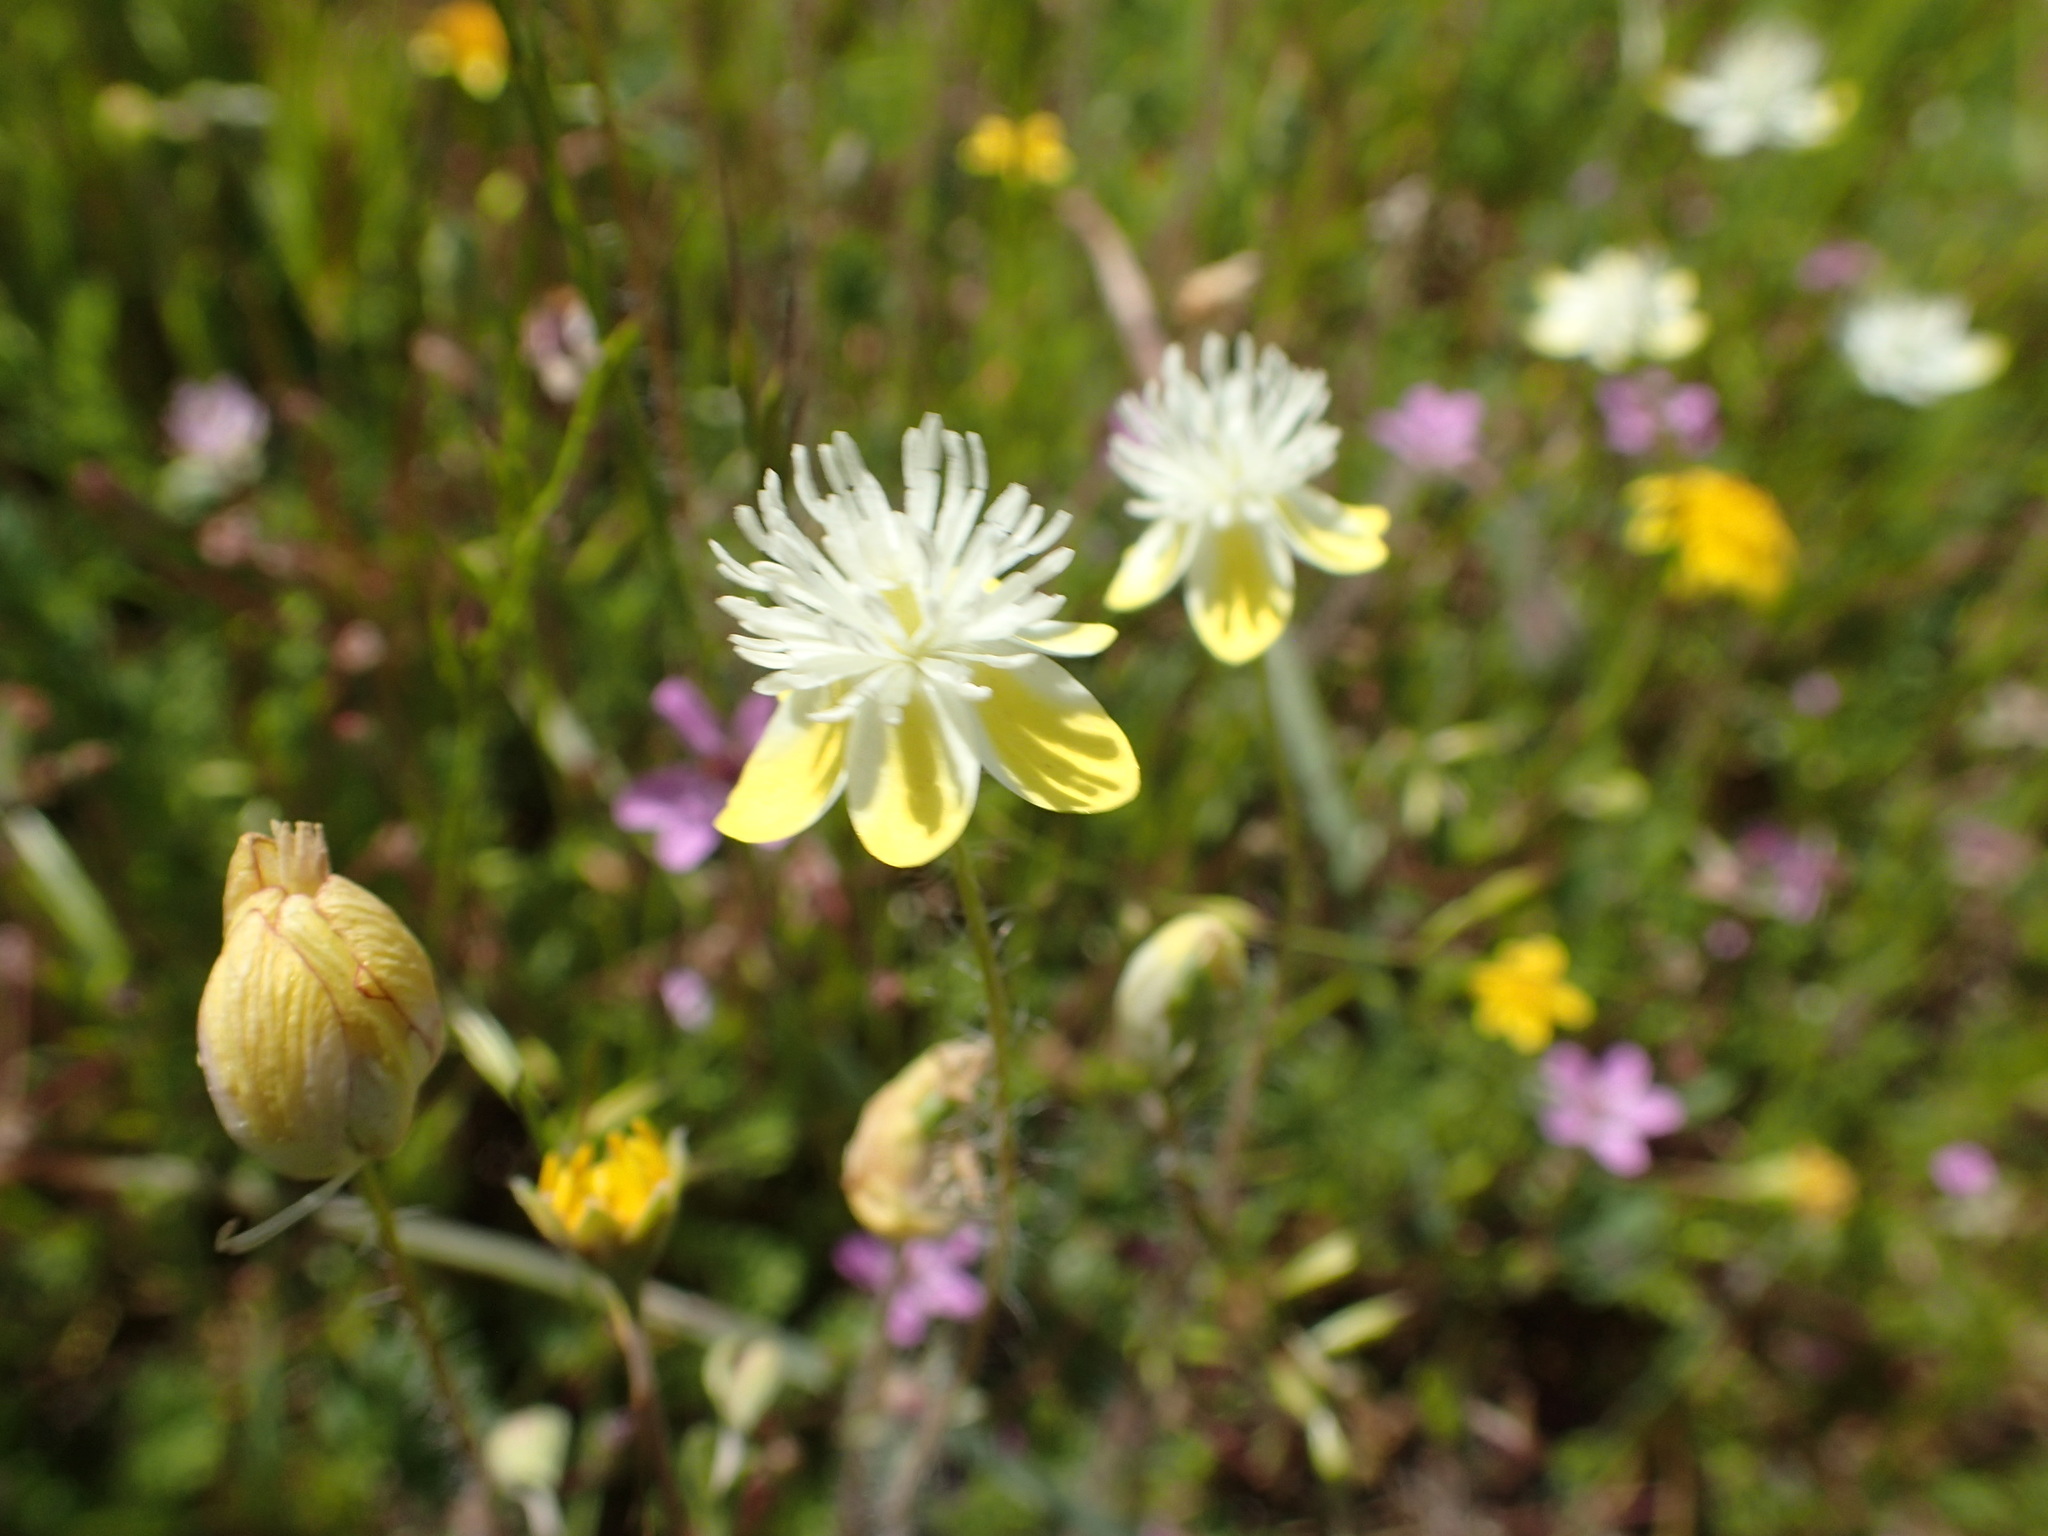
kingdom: Plantae
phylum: Tracheophyta
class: Magnoliopsida
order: Ranunculales
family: Papaveraceae
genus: Platystemon
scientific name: Platystemon californicus
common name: Cream-cups
